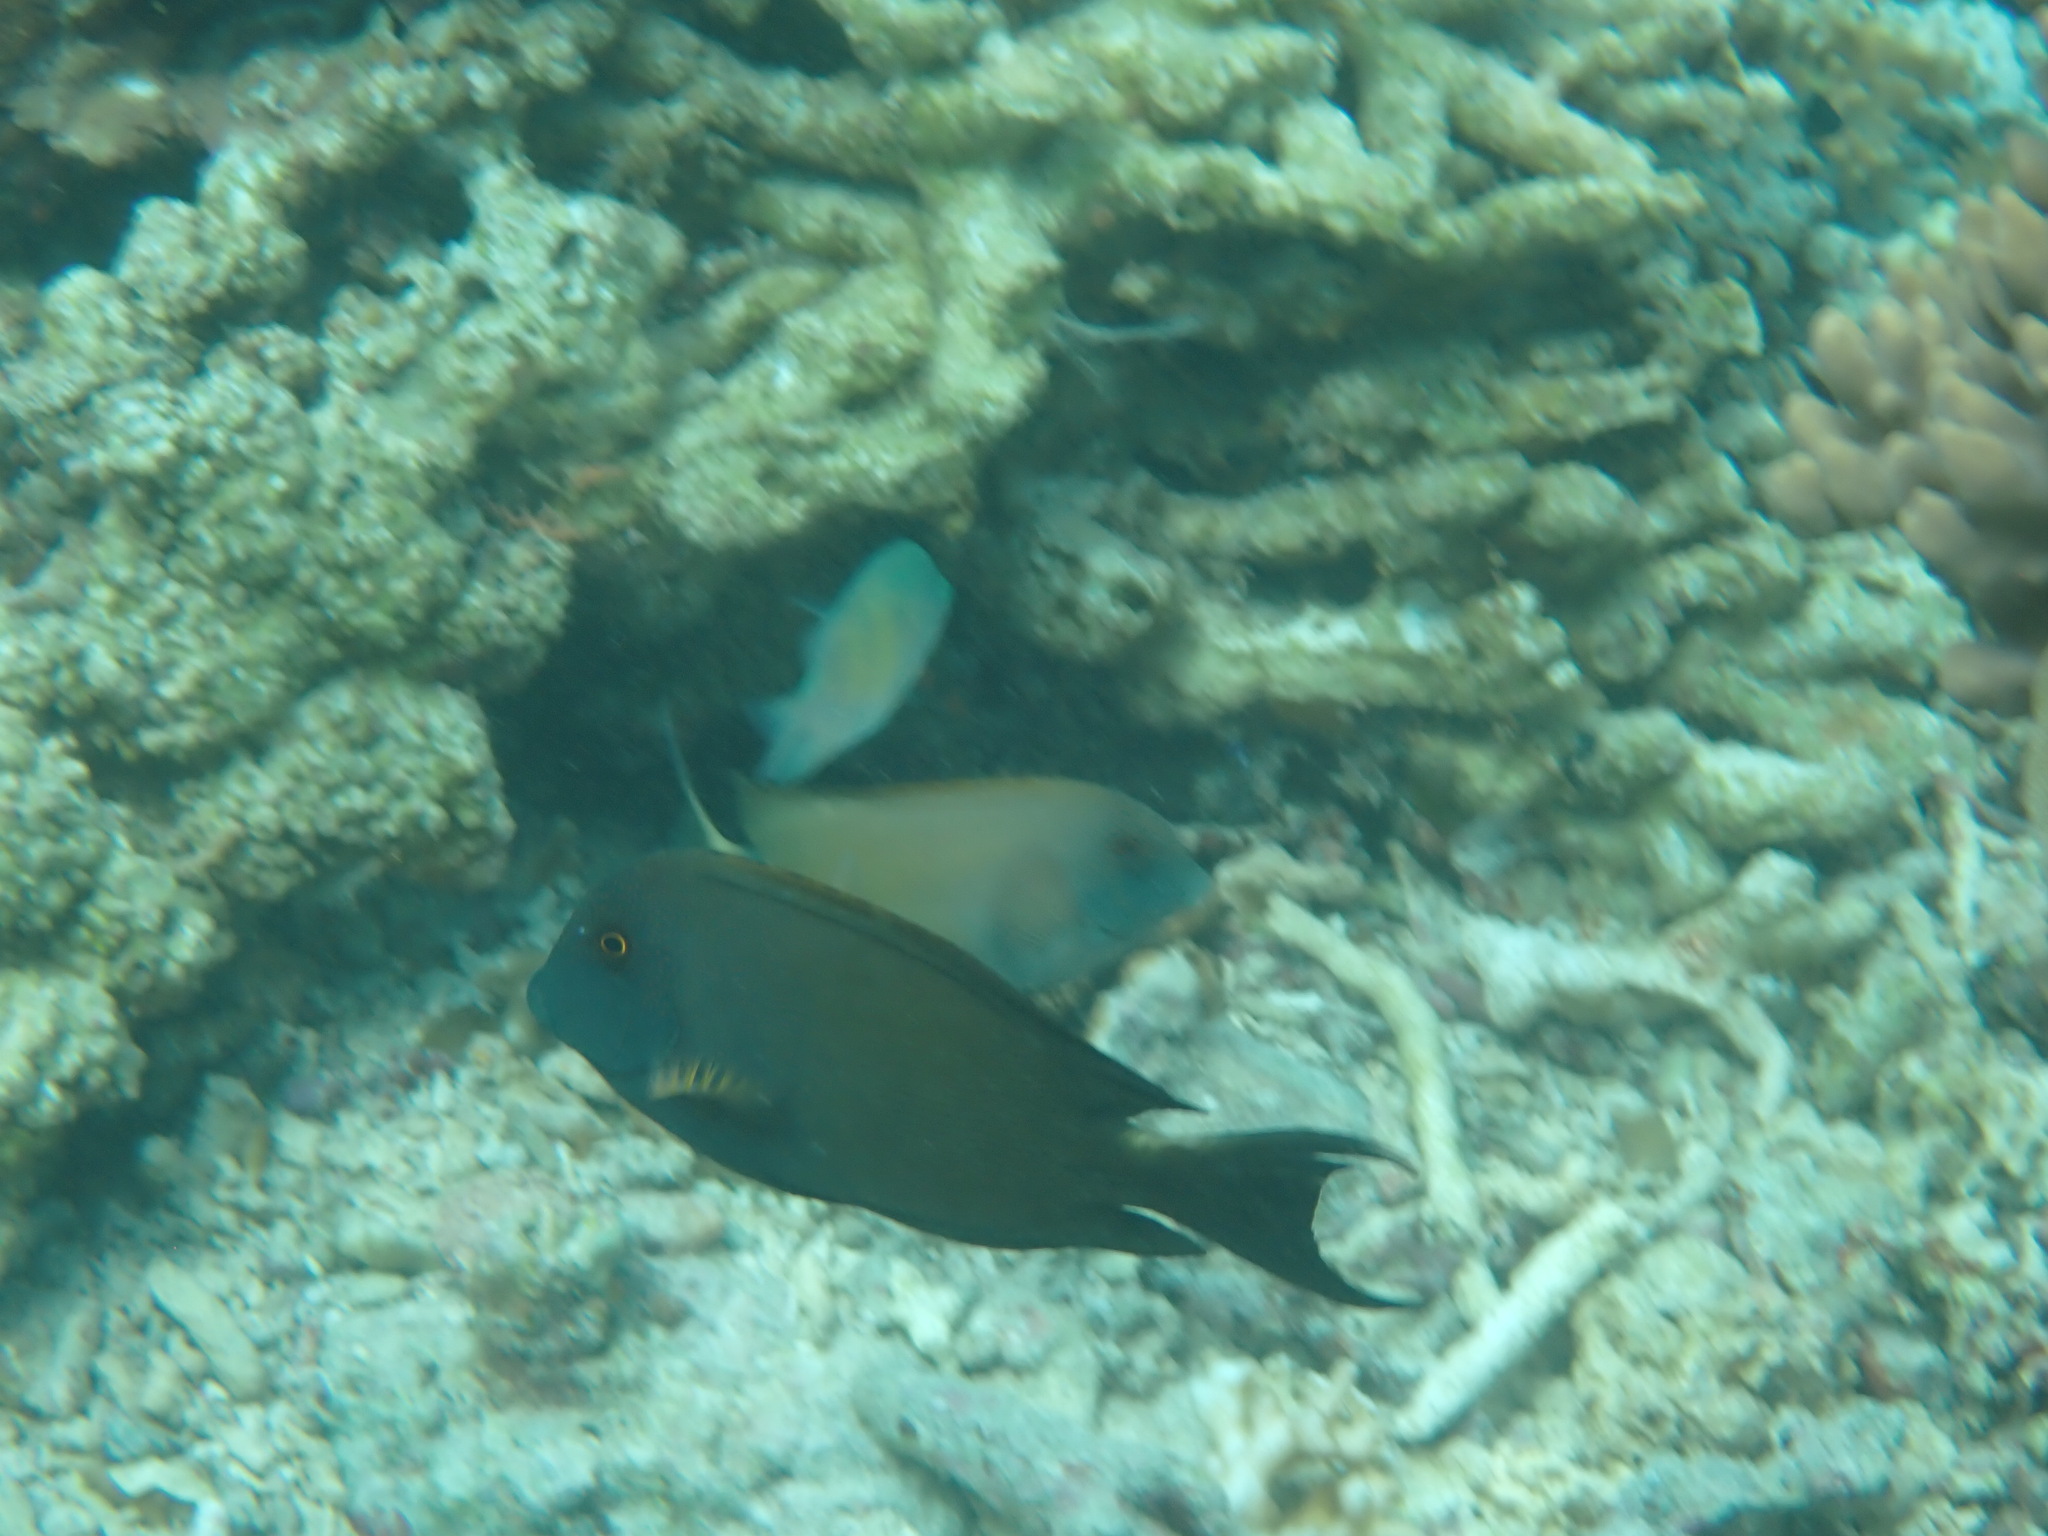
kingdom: Animalia
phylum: Chordata
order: Perciformes
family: Acanthuridae
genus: Ctenochaetus
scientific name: Ctenochaetus striatus
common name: Bristle-toothed surgeonfish
